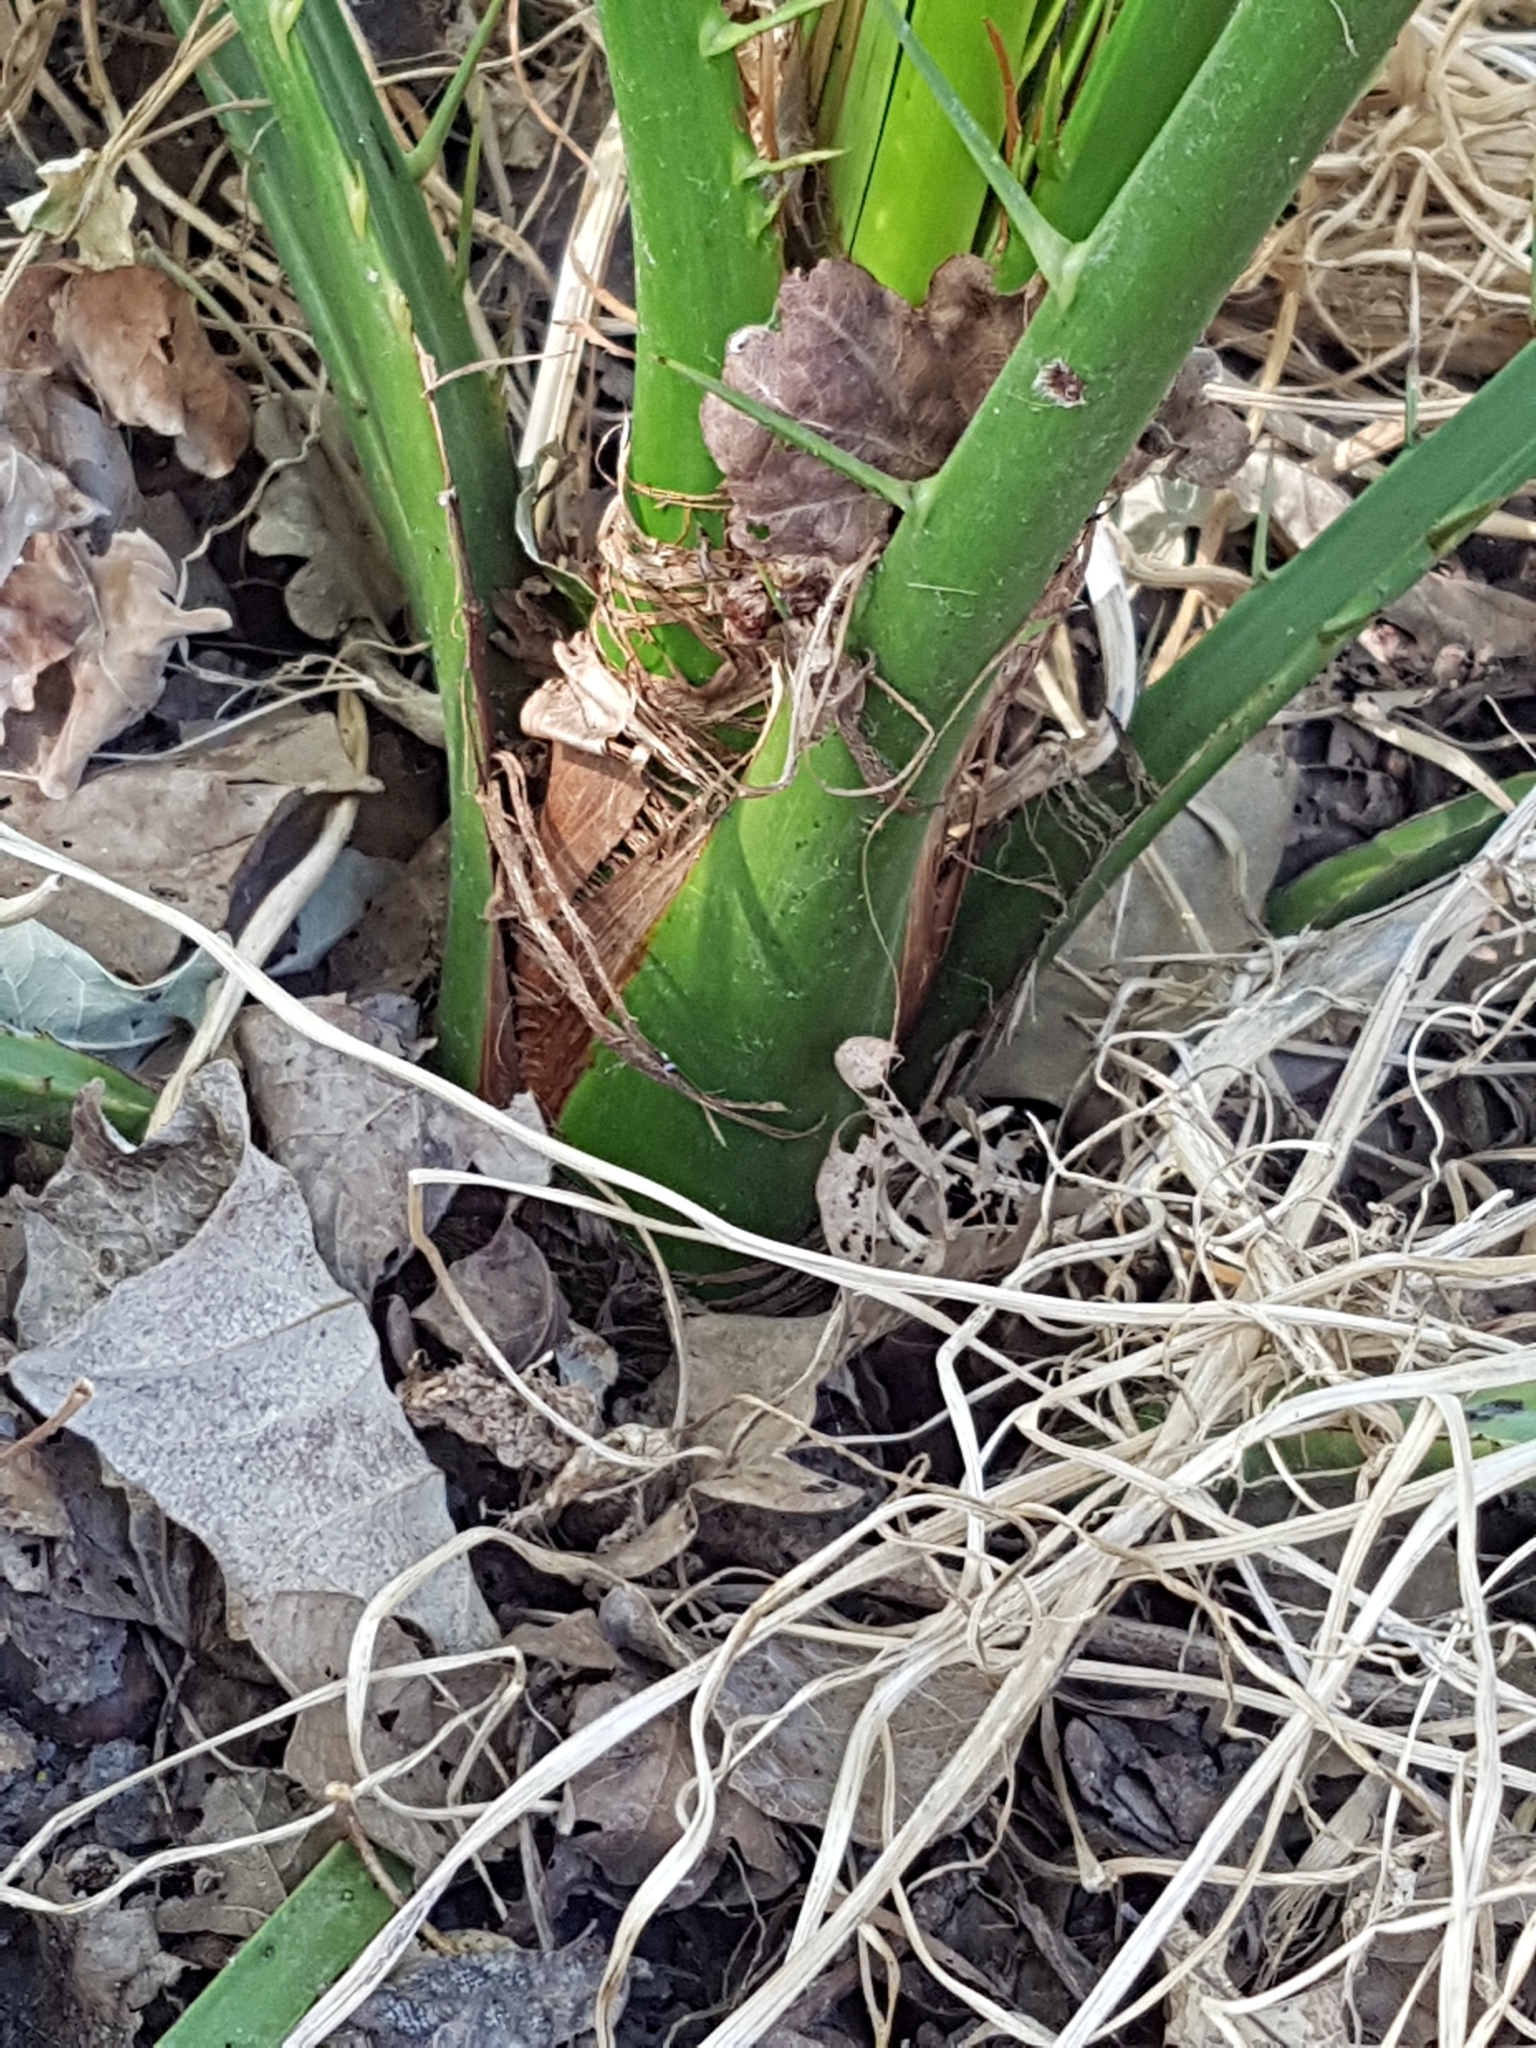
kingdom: Plantae
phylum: Tracheophyta
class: Liliopsida
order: Arecales
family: Arecaceae
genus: Phoenix
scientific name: Phoenix canariensis
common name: Canary island date palm
